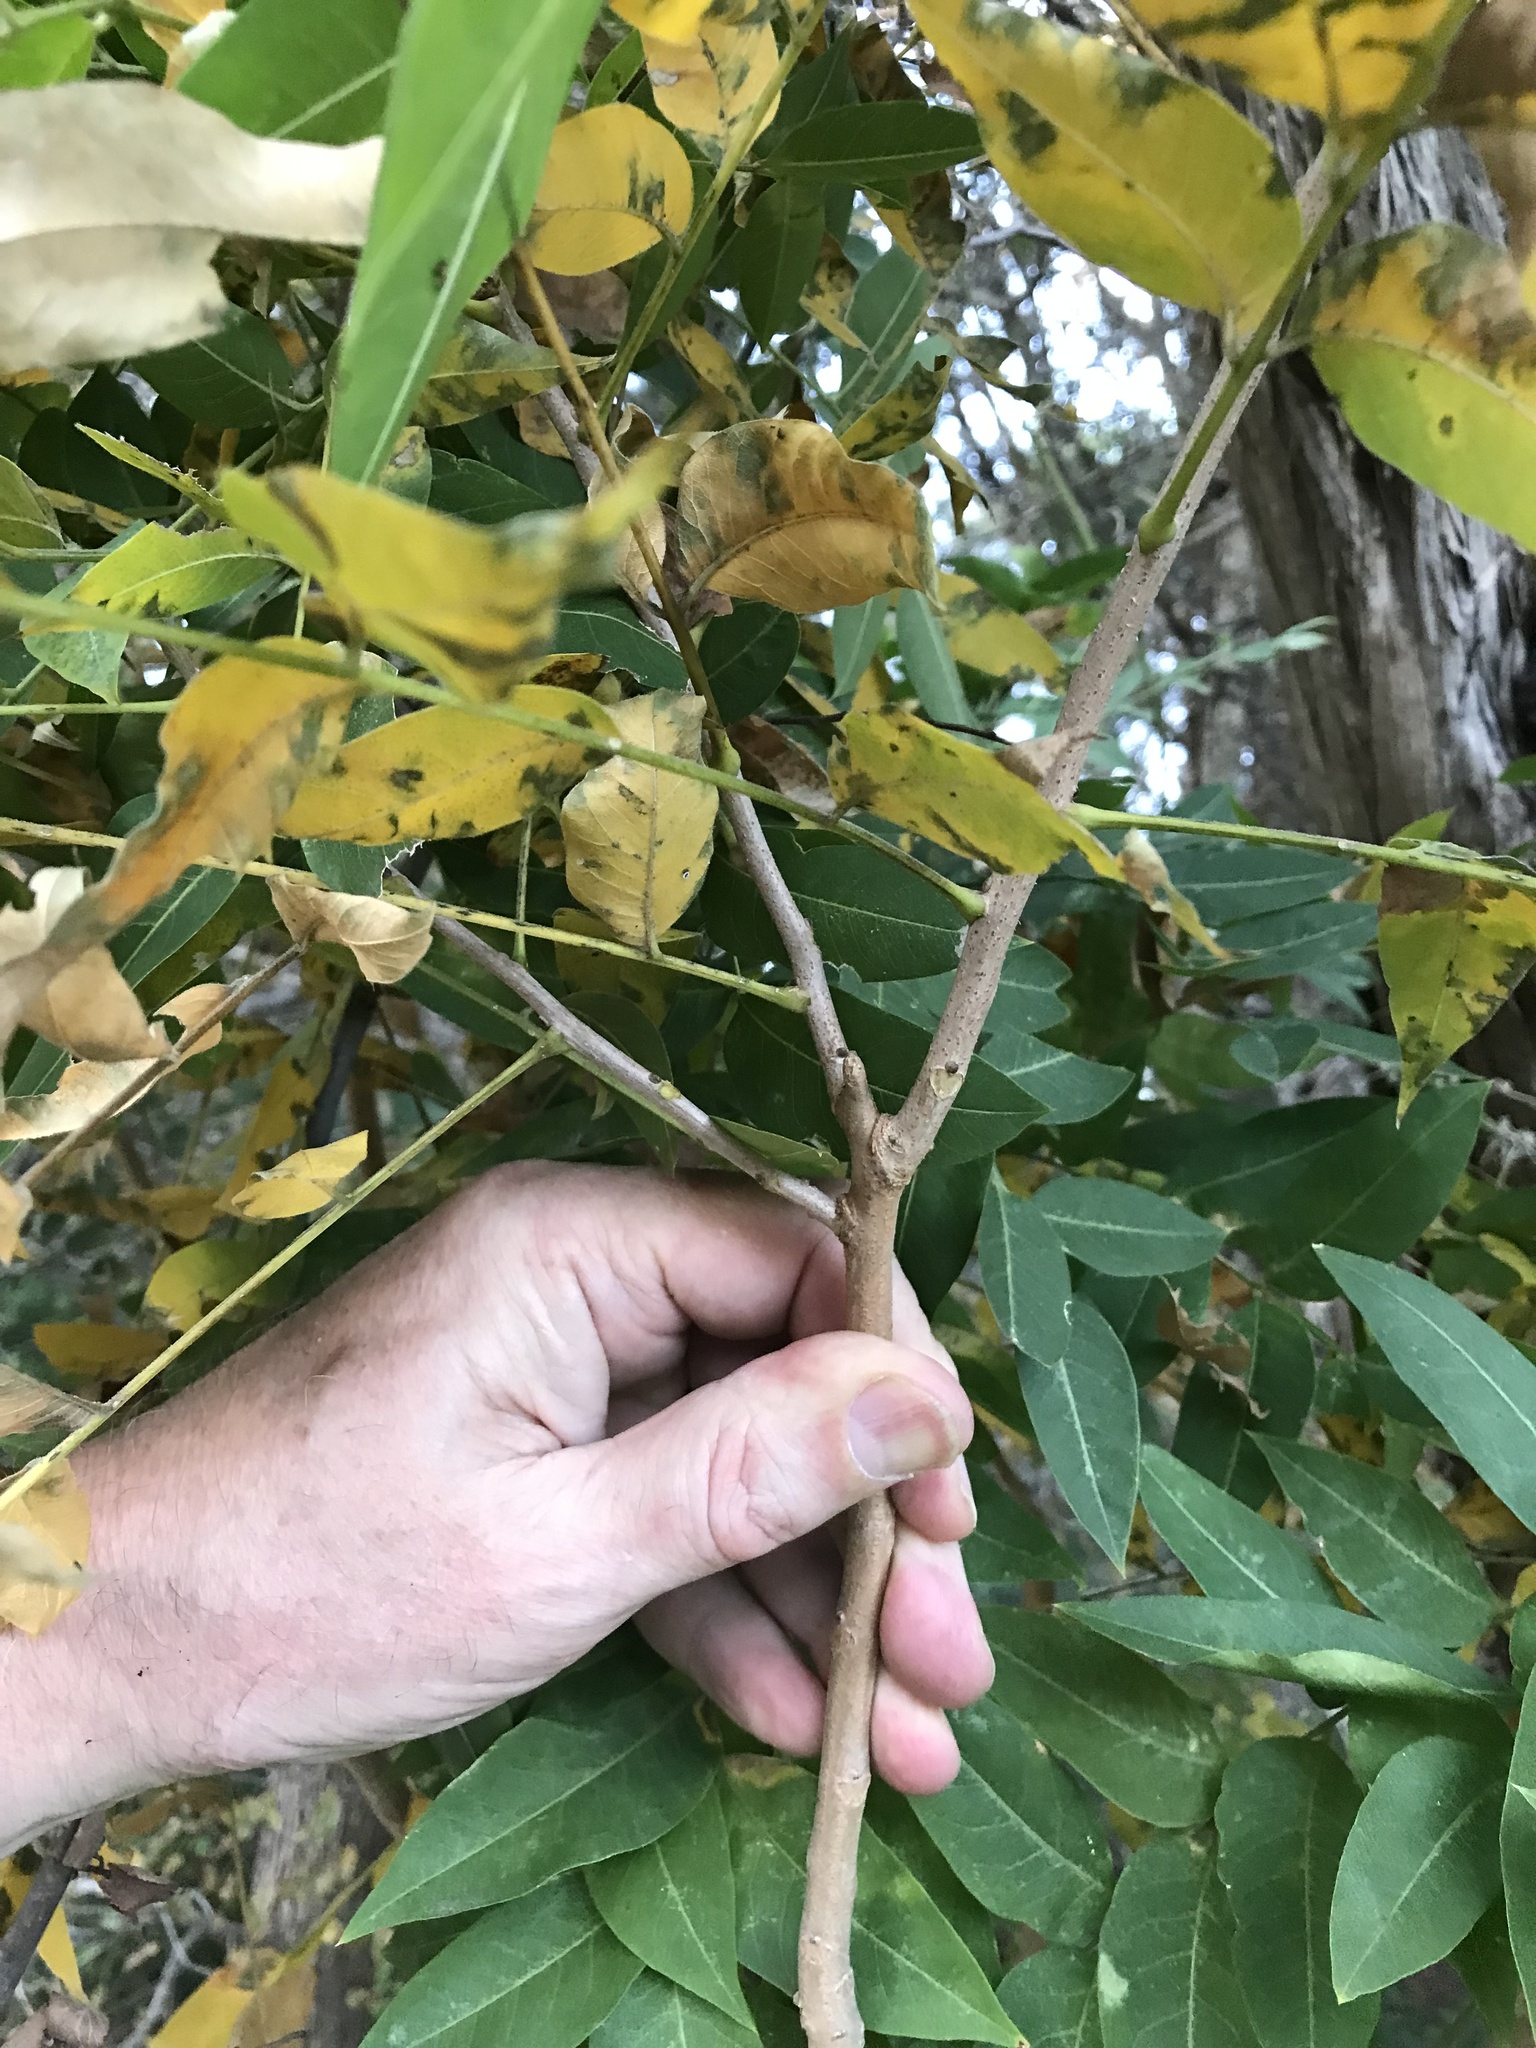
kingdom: Plantae
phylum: Tracheophyta
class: Magnoliopsida
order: Sapindales
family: Sapindaceae
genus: Sapindus
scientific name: Sapindus drummondii
